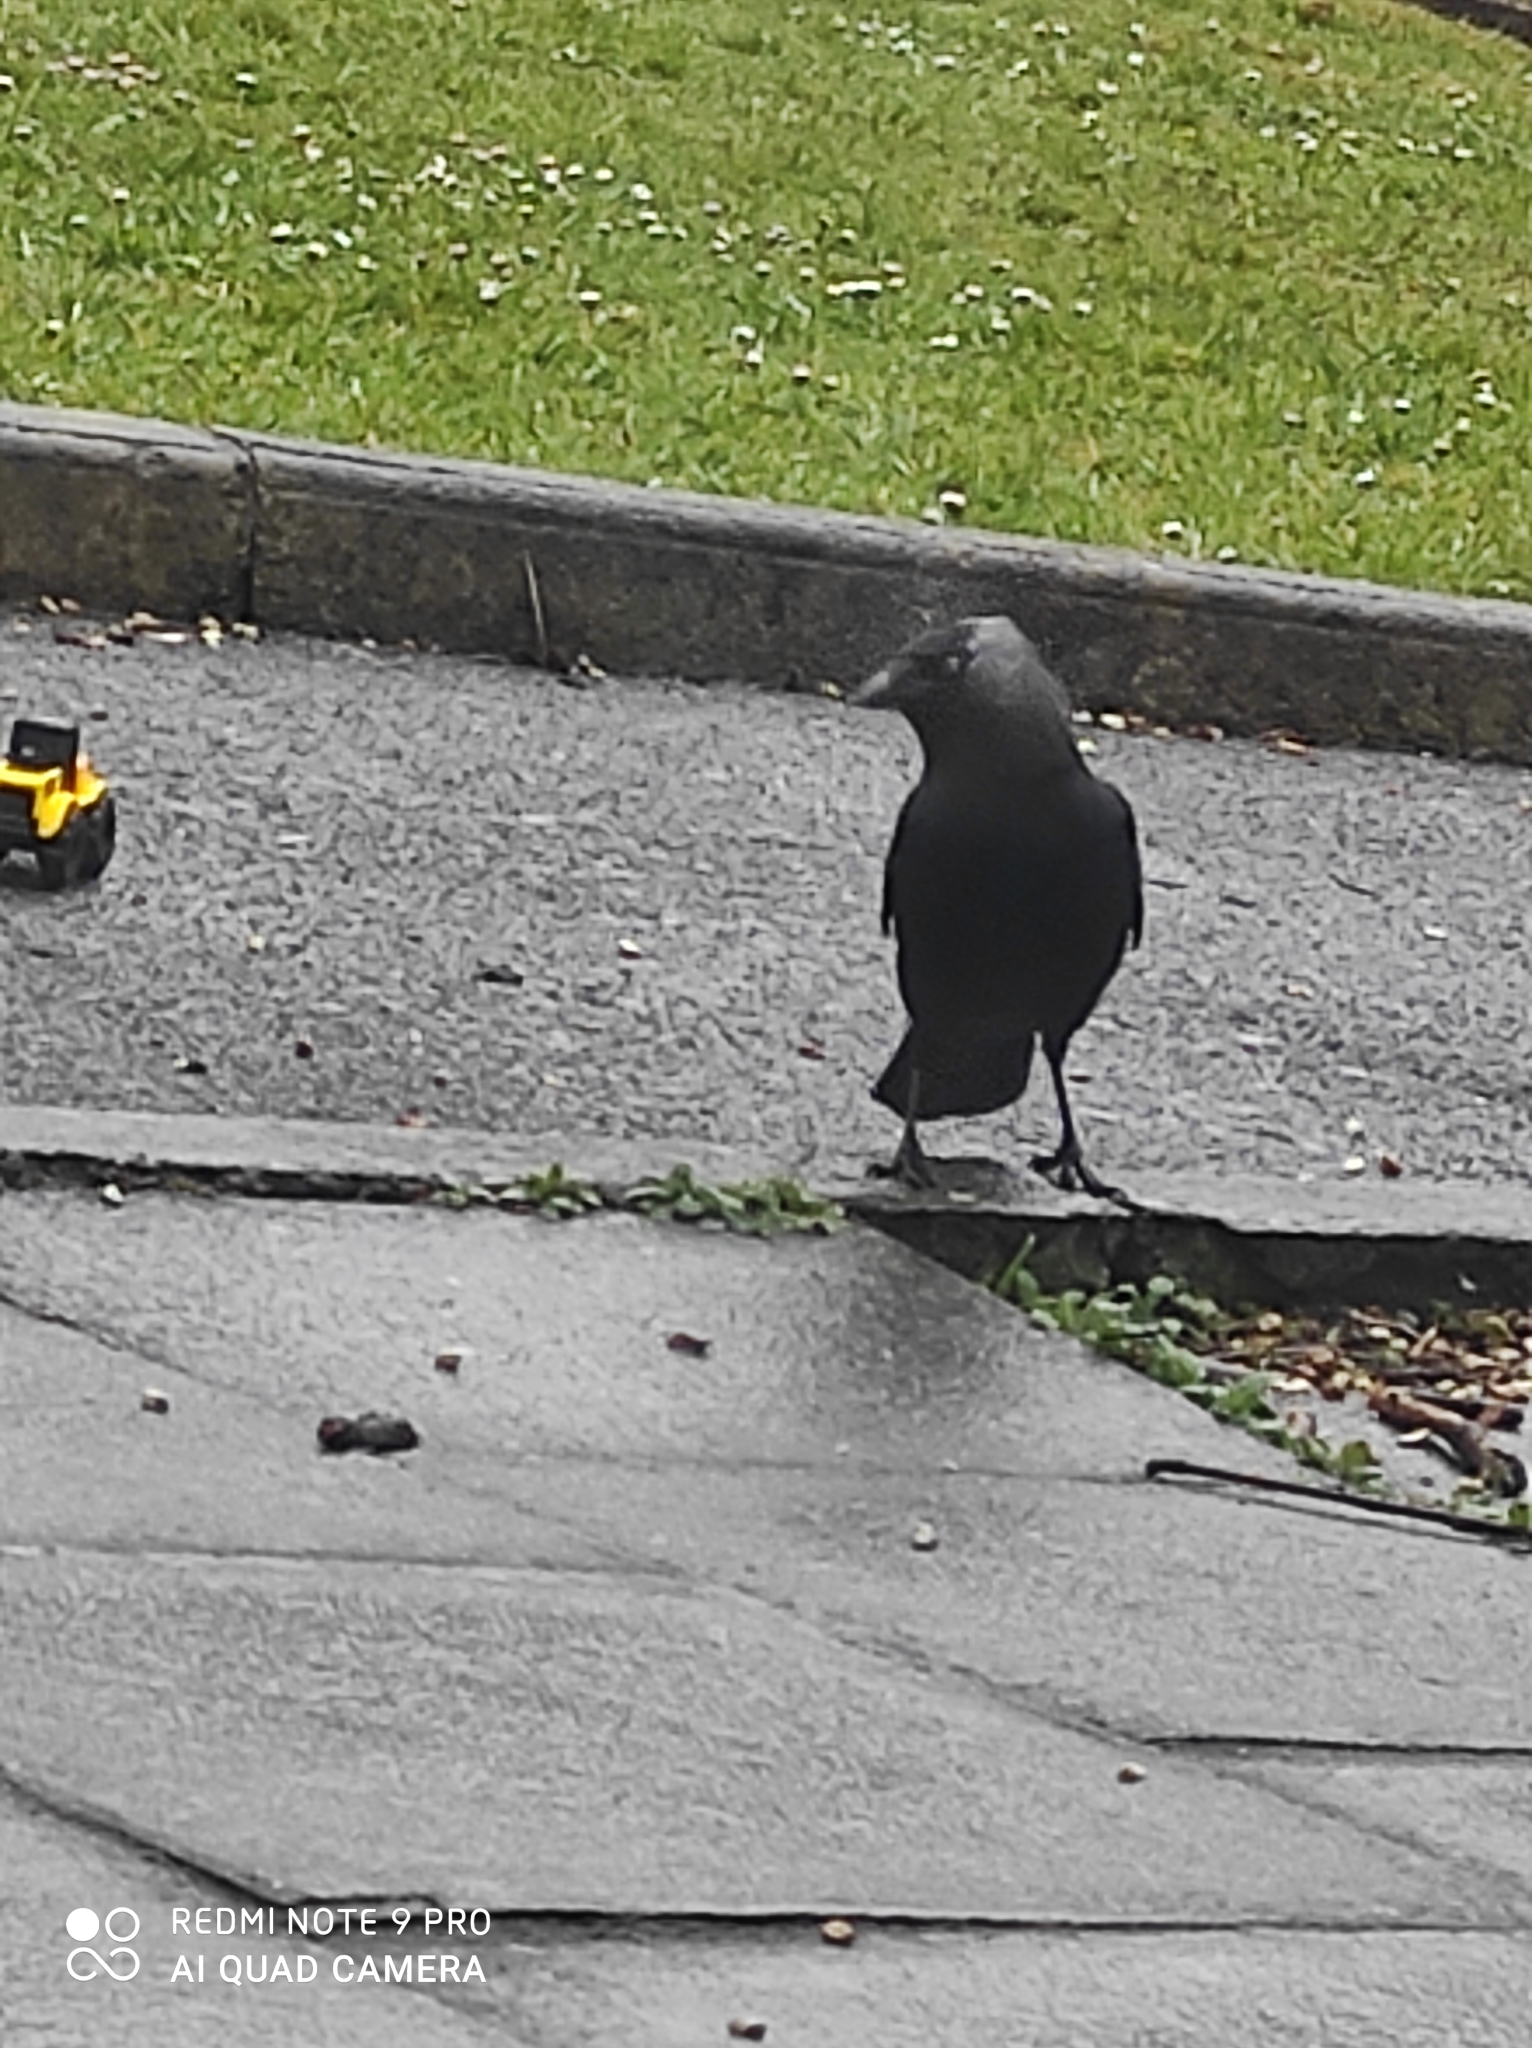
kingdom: Animalia
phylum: Chordata
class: Aves
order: Passeriformes
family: Corvidae
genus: Coloeus
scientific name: Coloeus monedula
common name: Western jackdaw
